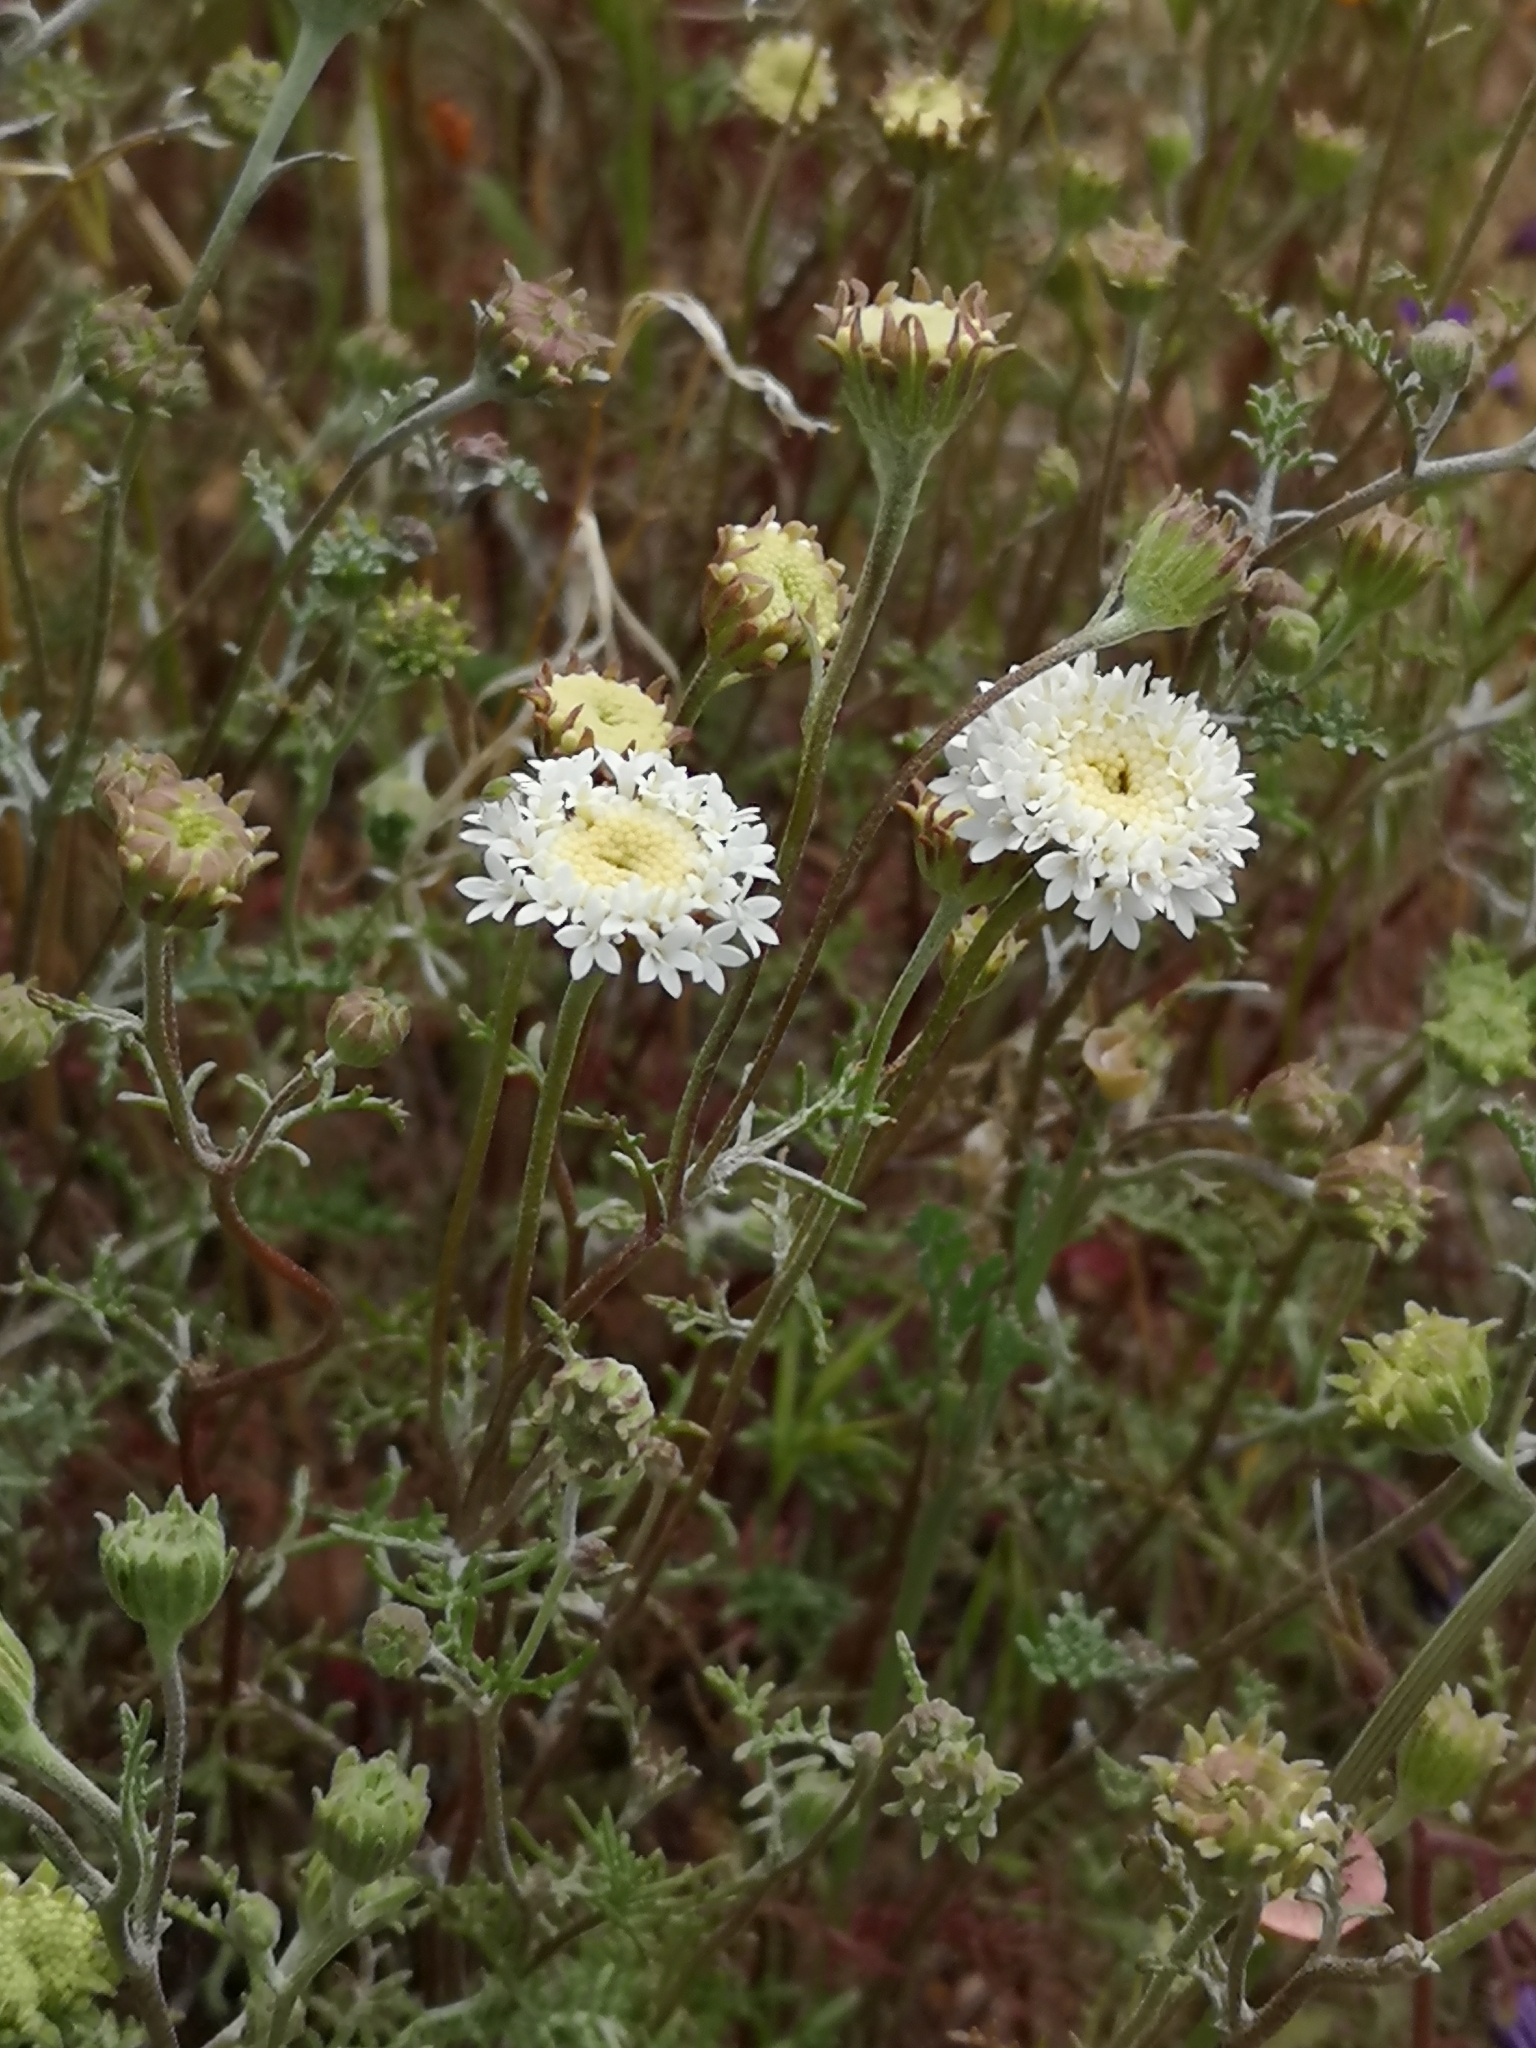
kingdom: Plantae
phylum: Tracheophyta
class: Magnoliopsida
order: Asterales
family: Asteraceae
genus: Chaenactis
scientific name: Chaenactis xantiana
